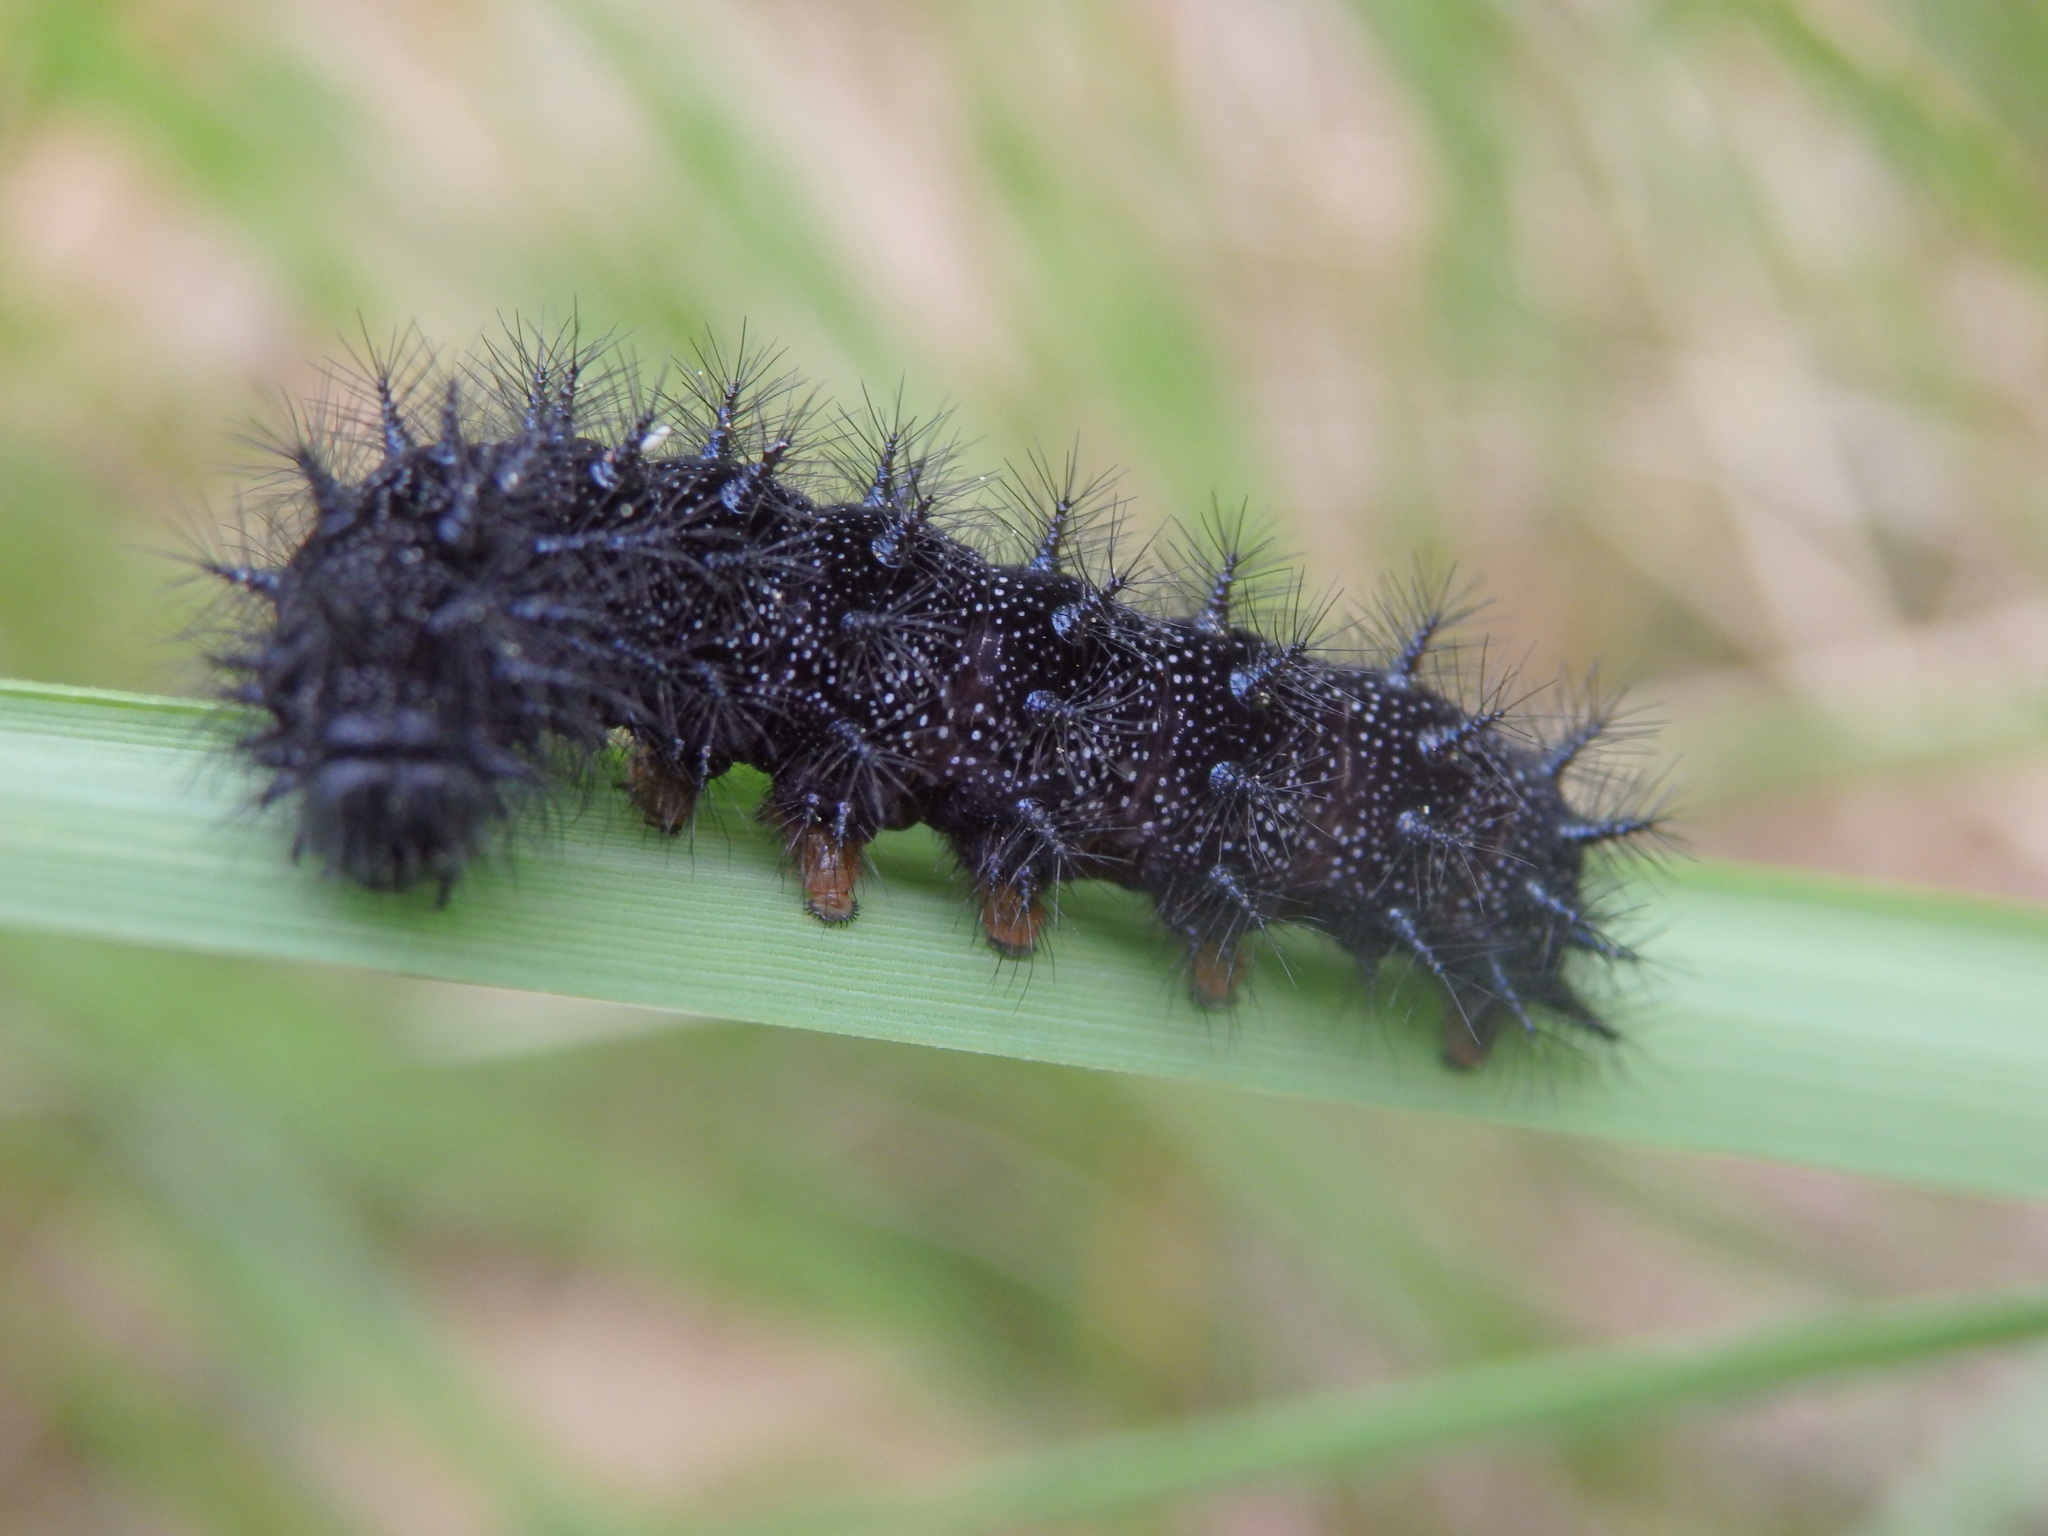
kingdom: Animalia
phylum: Arthropoda
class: Insecta
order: Lepidoptera
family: Nymphalidae
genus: Euphydryas
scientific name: Euphydryas aurinia
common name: Marsh fritillary
